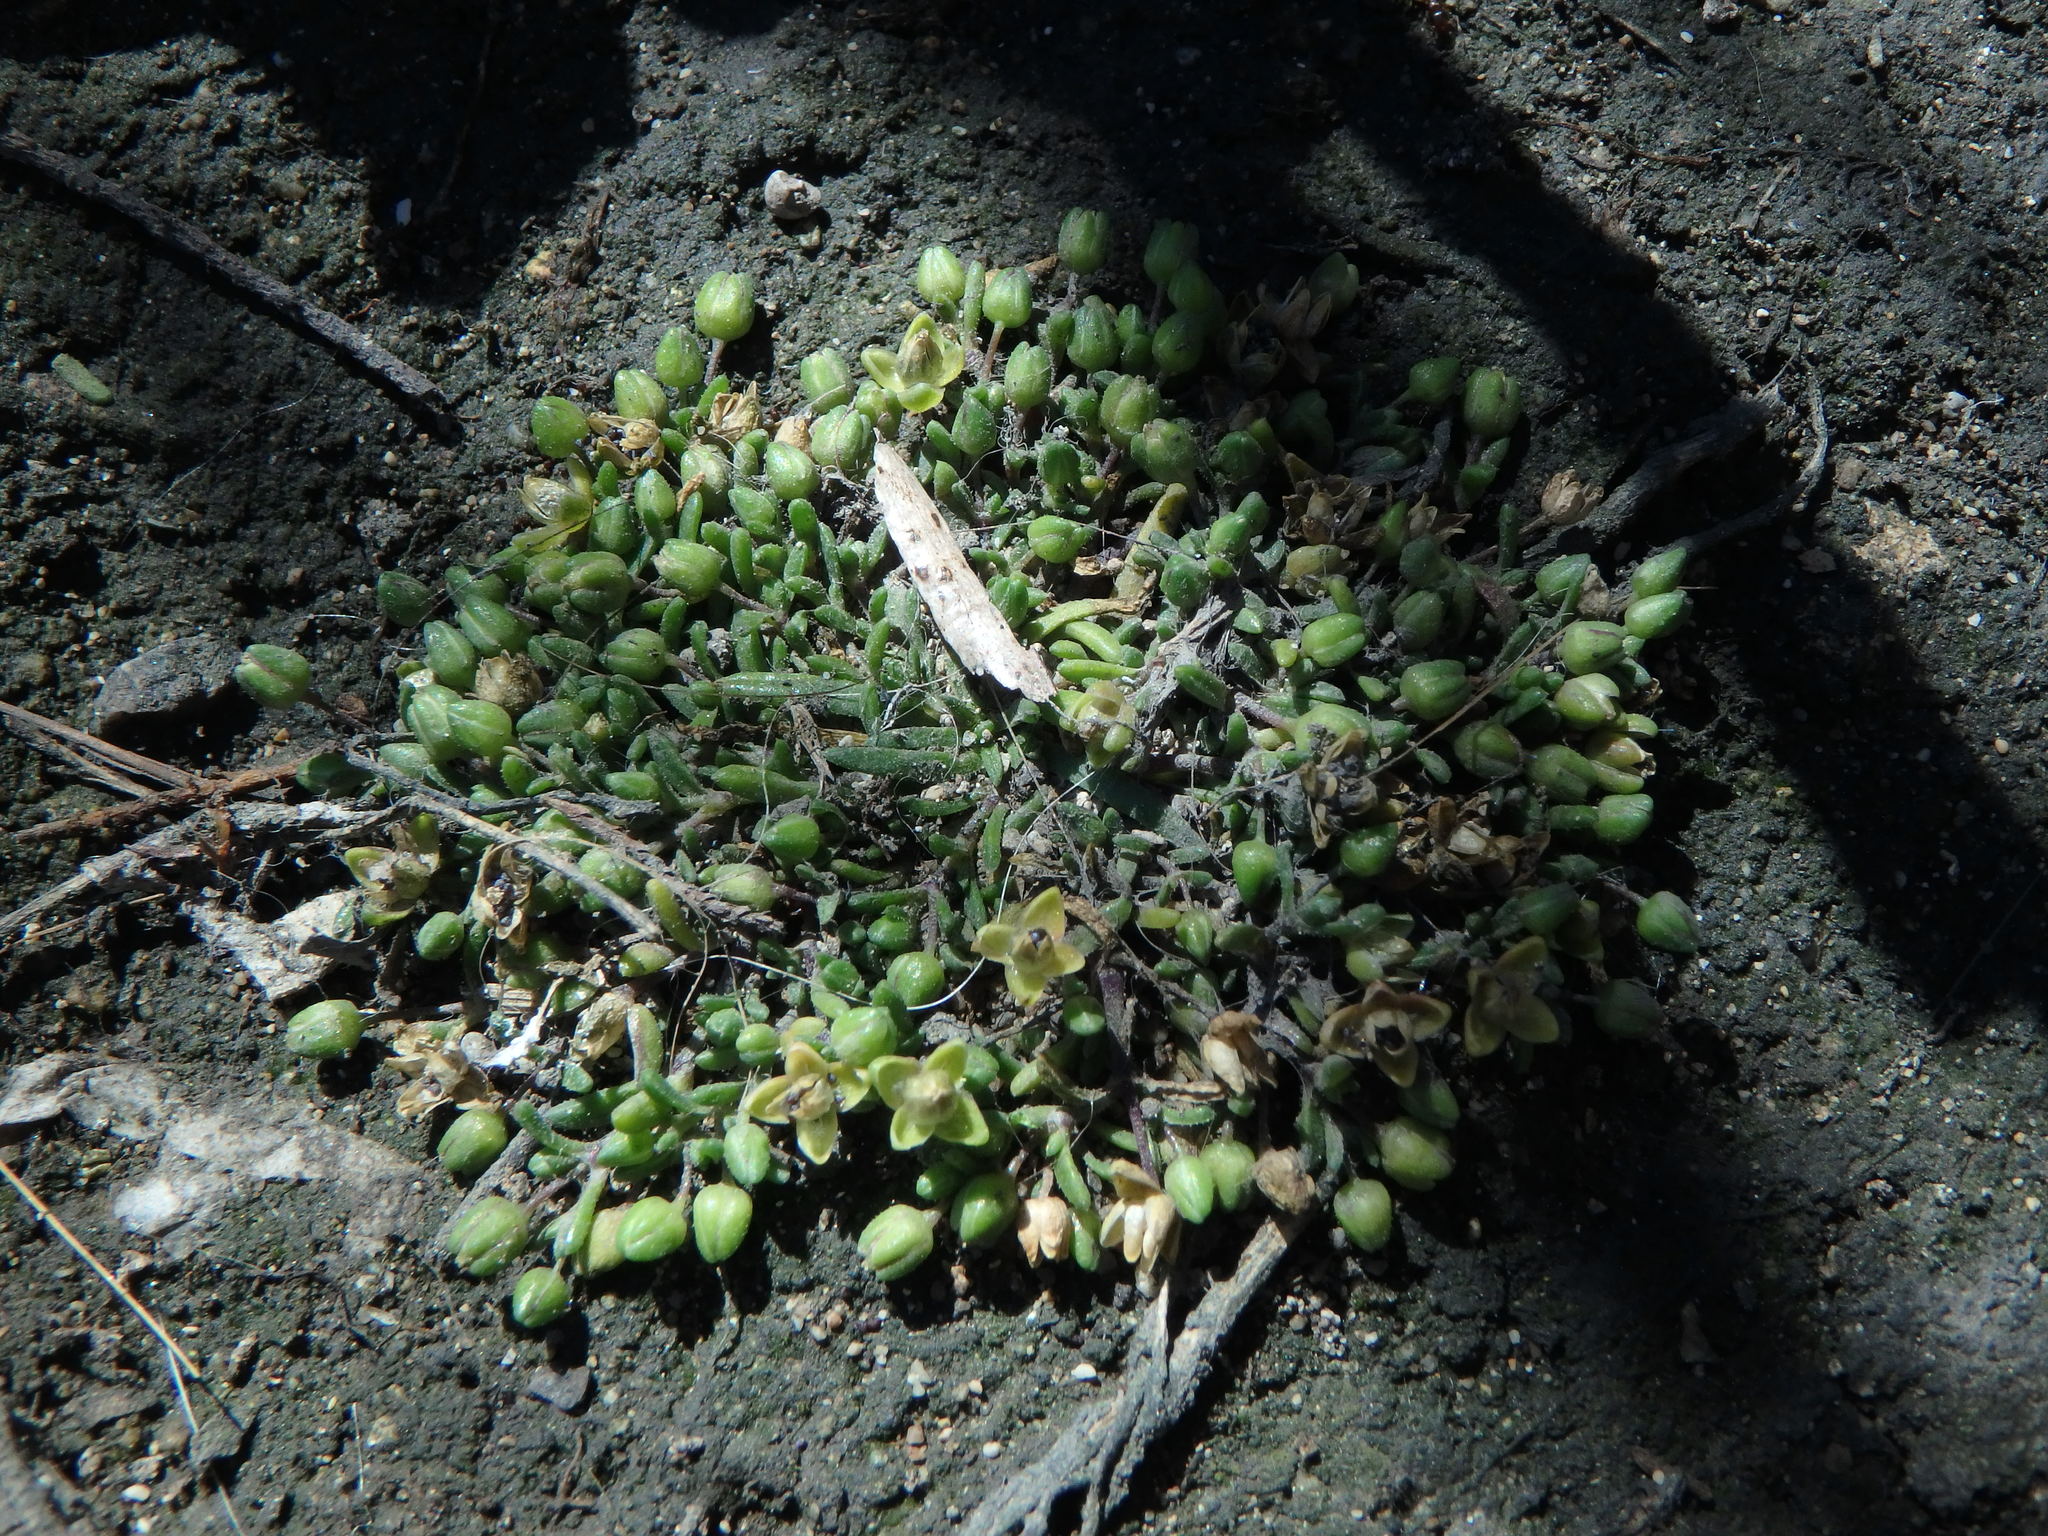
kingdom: Plantae
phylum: Tracheophyta
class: Magnoliopsida
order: Caryophyllales
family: Caryophyllaceae
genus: Sagina
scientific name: Sagina maritima
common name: Sea pearlwort
